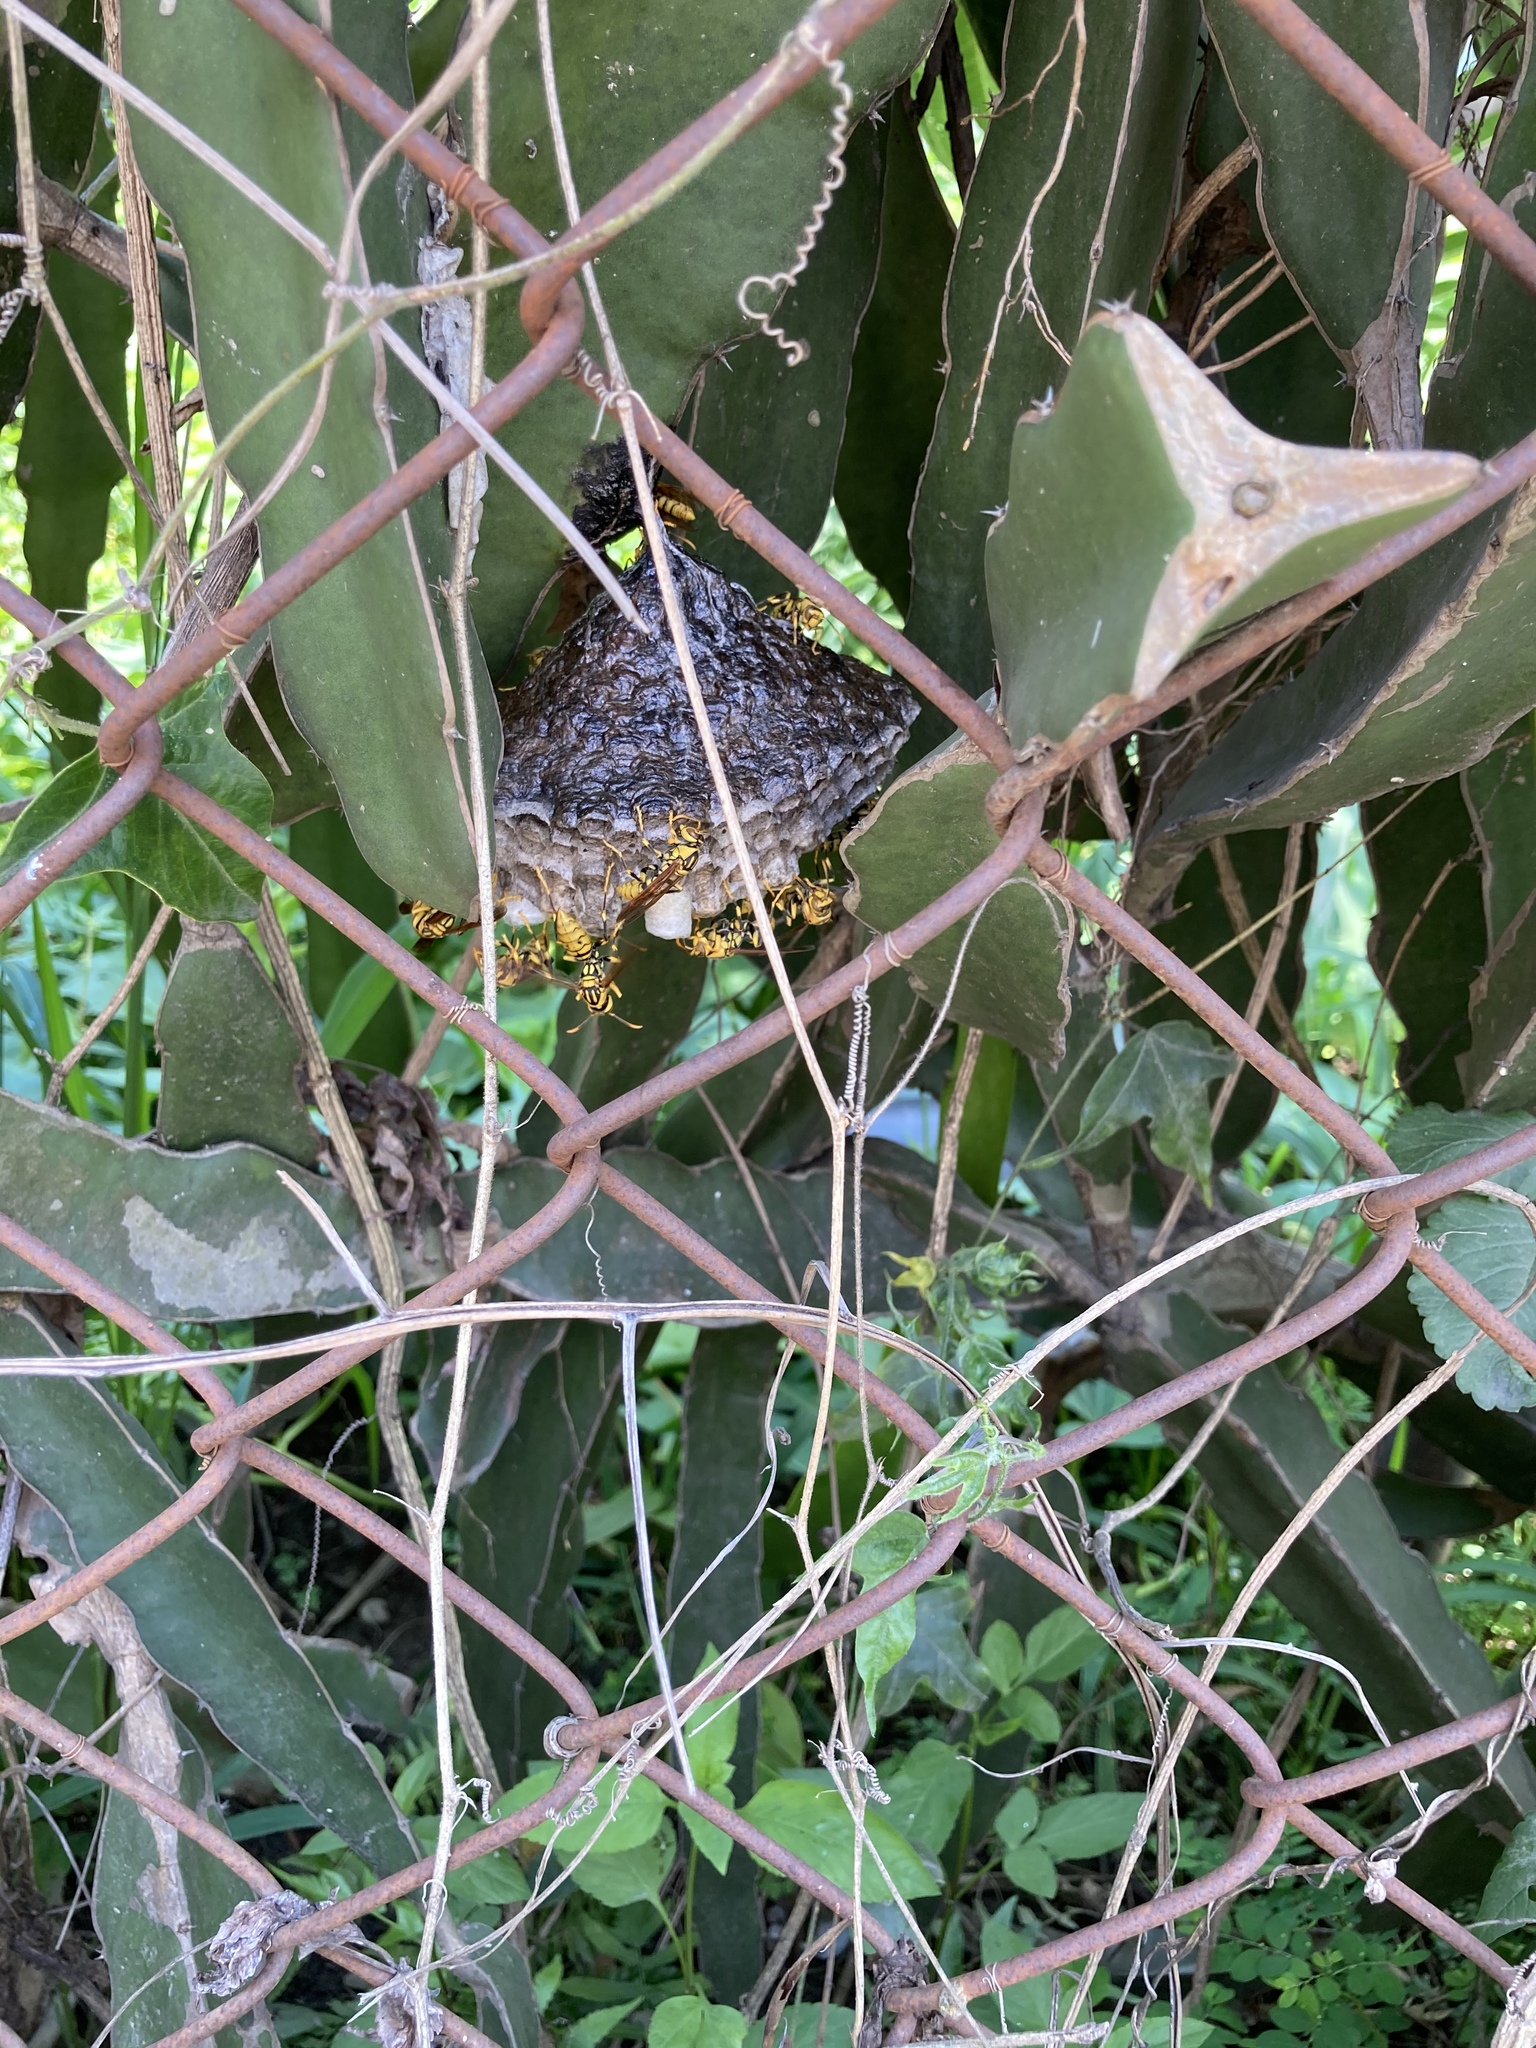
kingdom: Animalia
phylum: Arthropoda
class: Insecta
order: Hymenoptera
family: Eumenidae
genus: Polistes
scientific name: Polistes rothneyi
